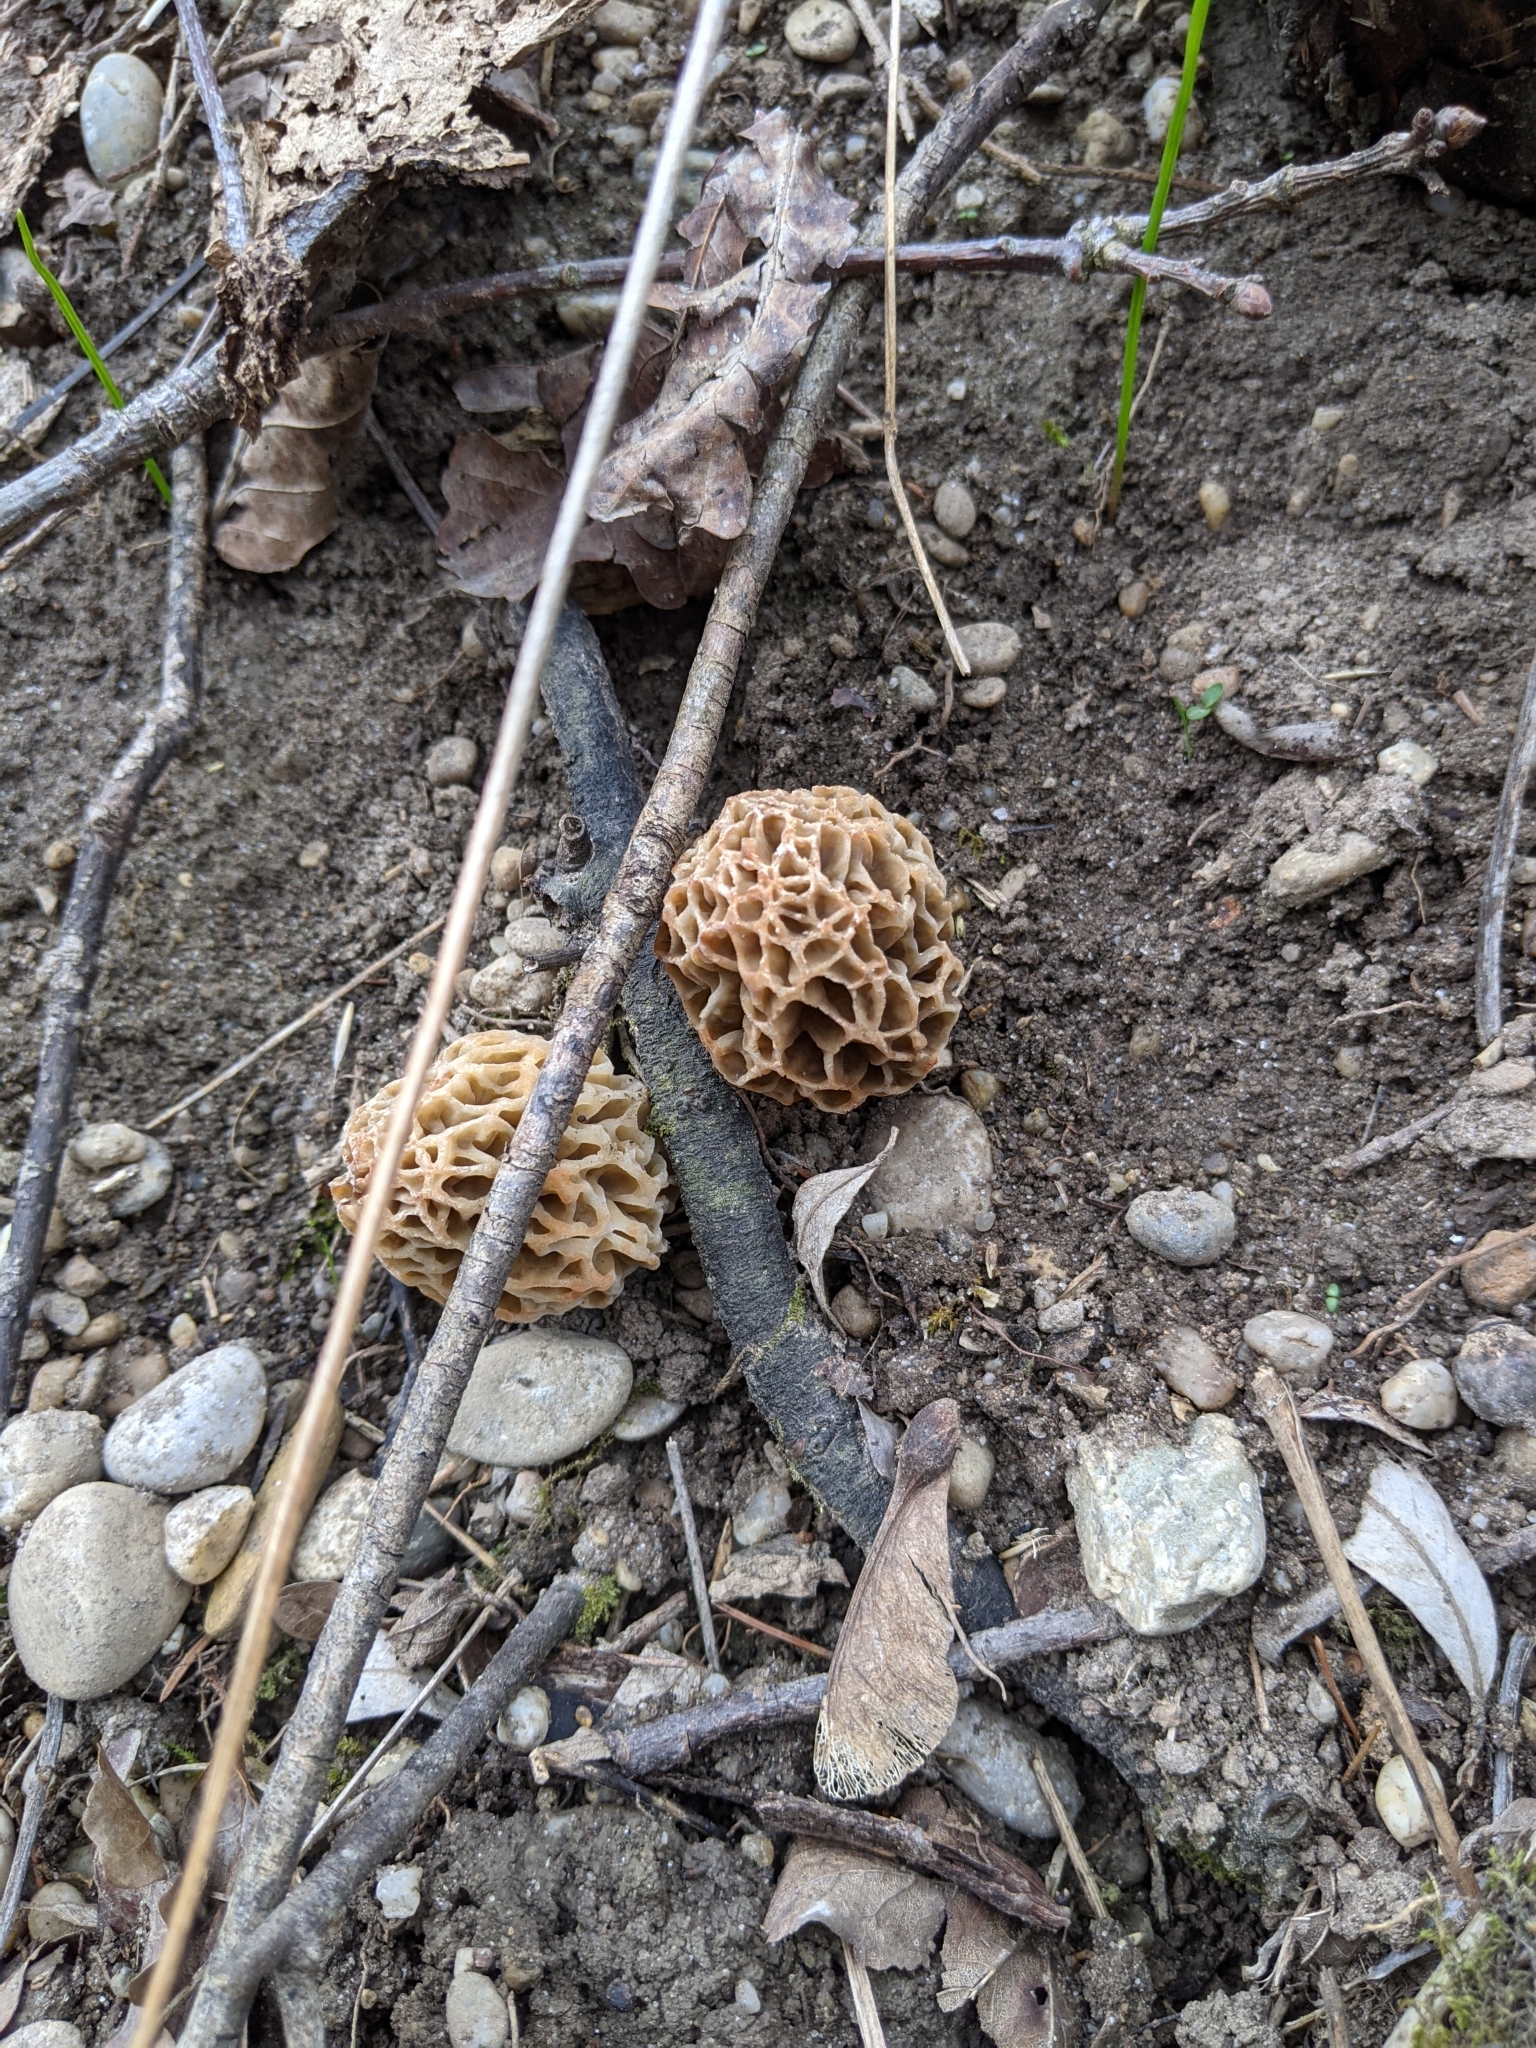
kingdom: Fungi
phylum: Ascomycota
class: Pezizomycetes
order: Pezizales
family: Morchellaceae
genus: Morchella
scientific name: Morchella esculenta
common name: Morel
